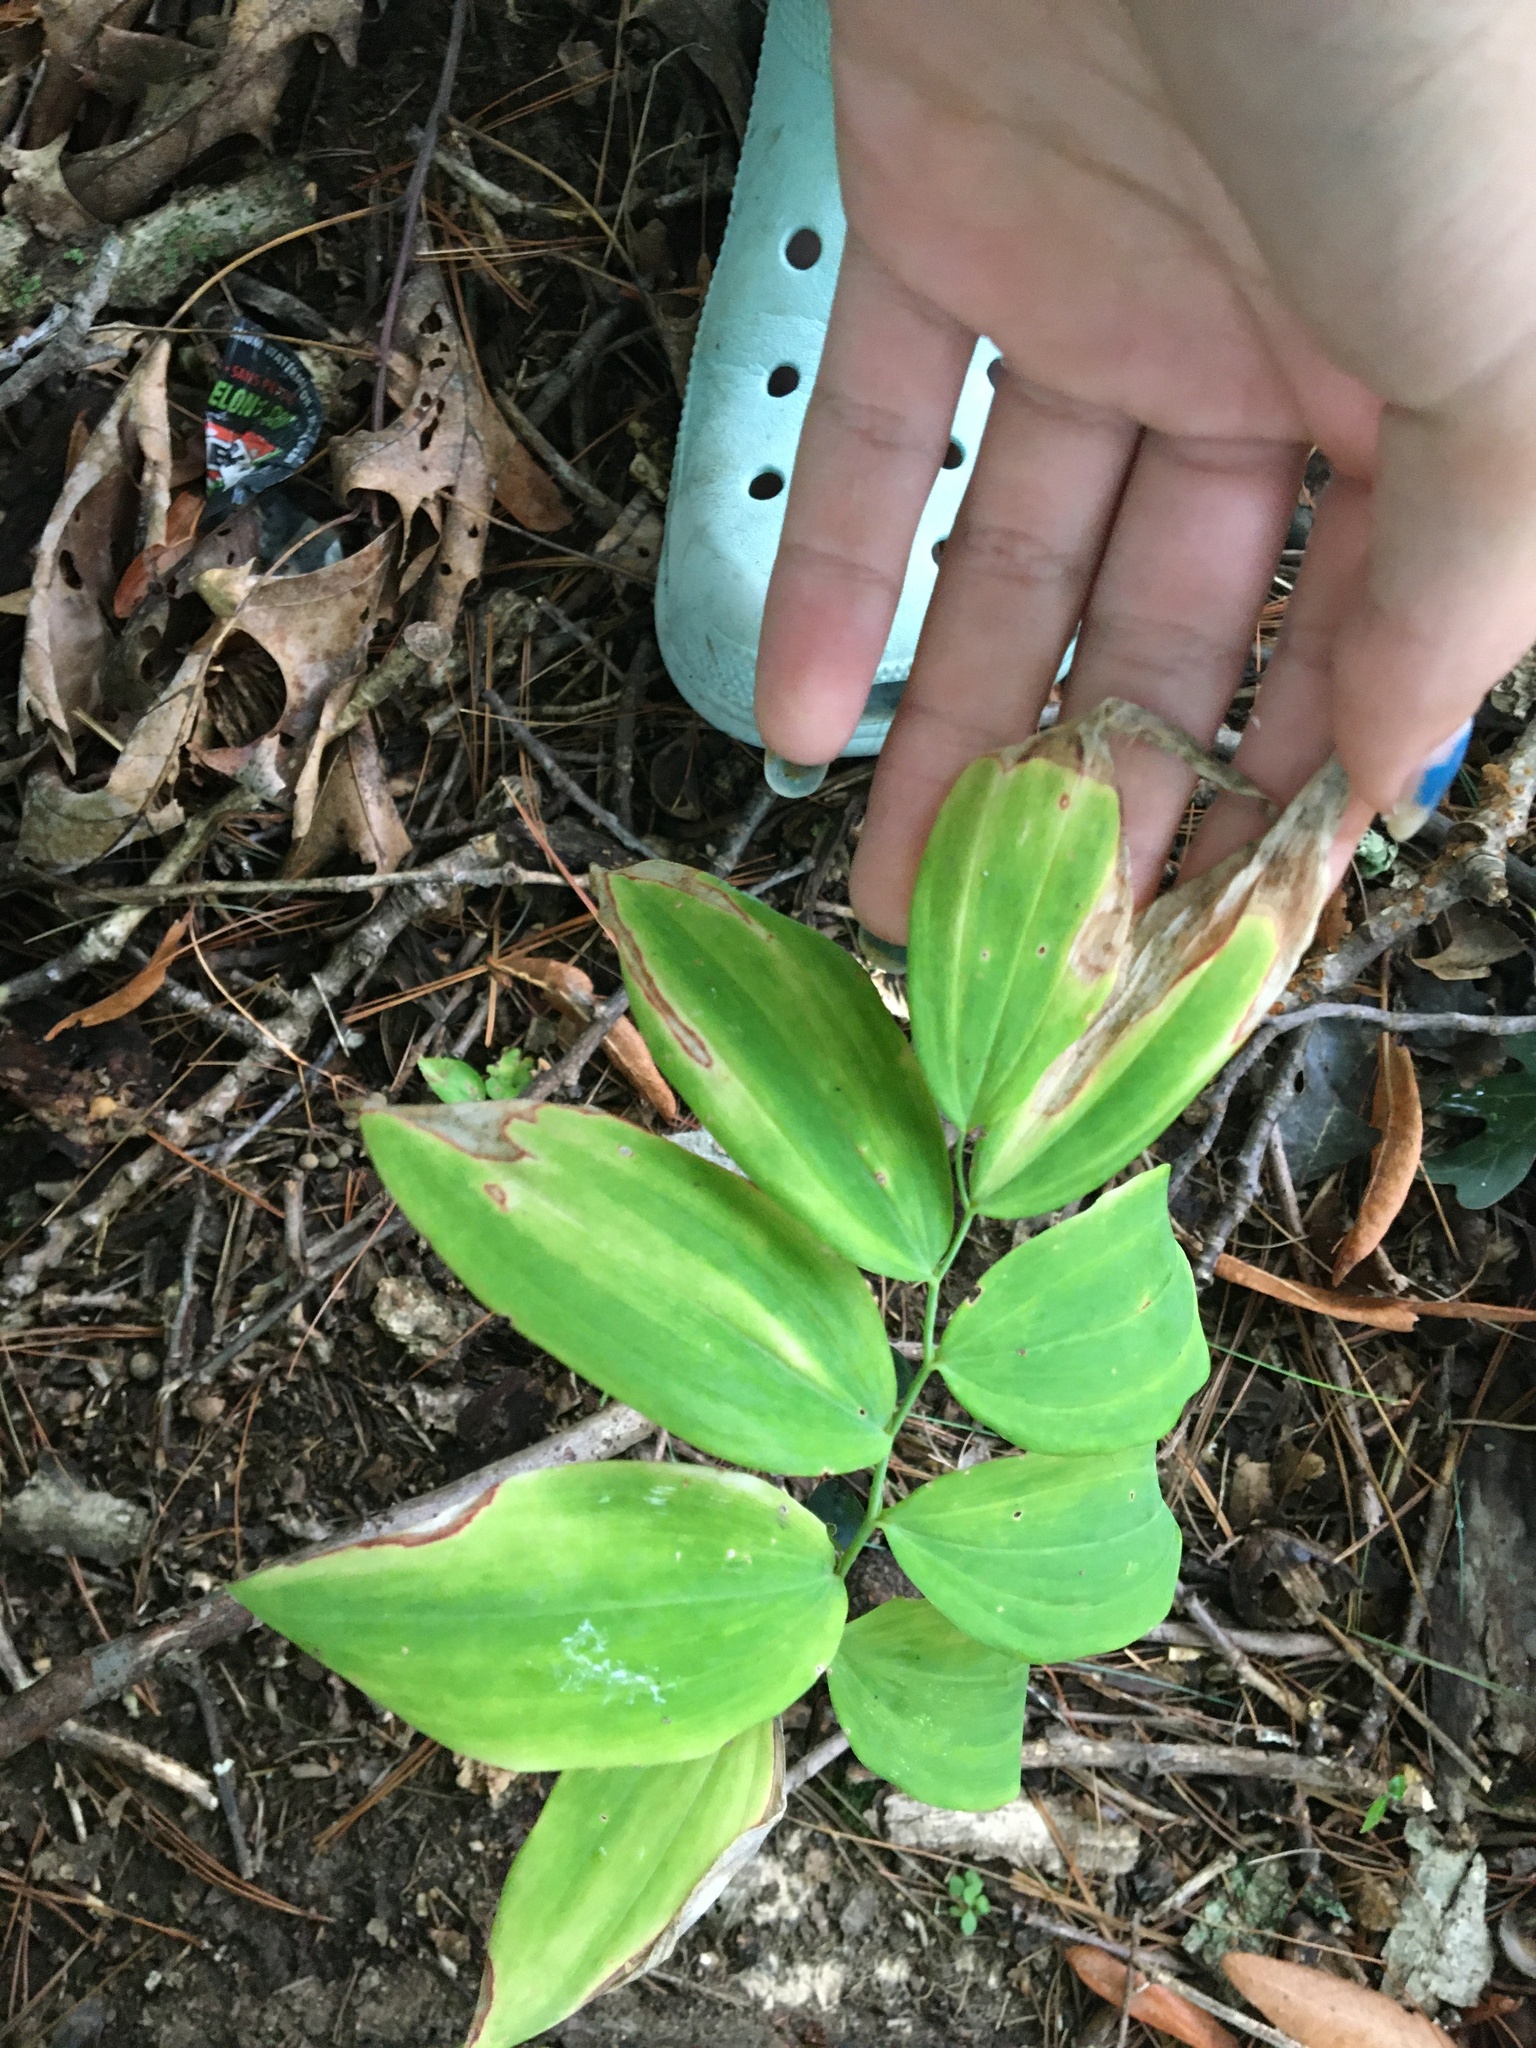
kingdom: Plantae
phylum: Tracheophyta
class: Liliopsida
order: Asparagales
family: Asparagaceae
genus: Polygonatum
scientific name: Polygonatum pubescens
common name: Downy solomon's seal
